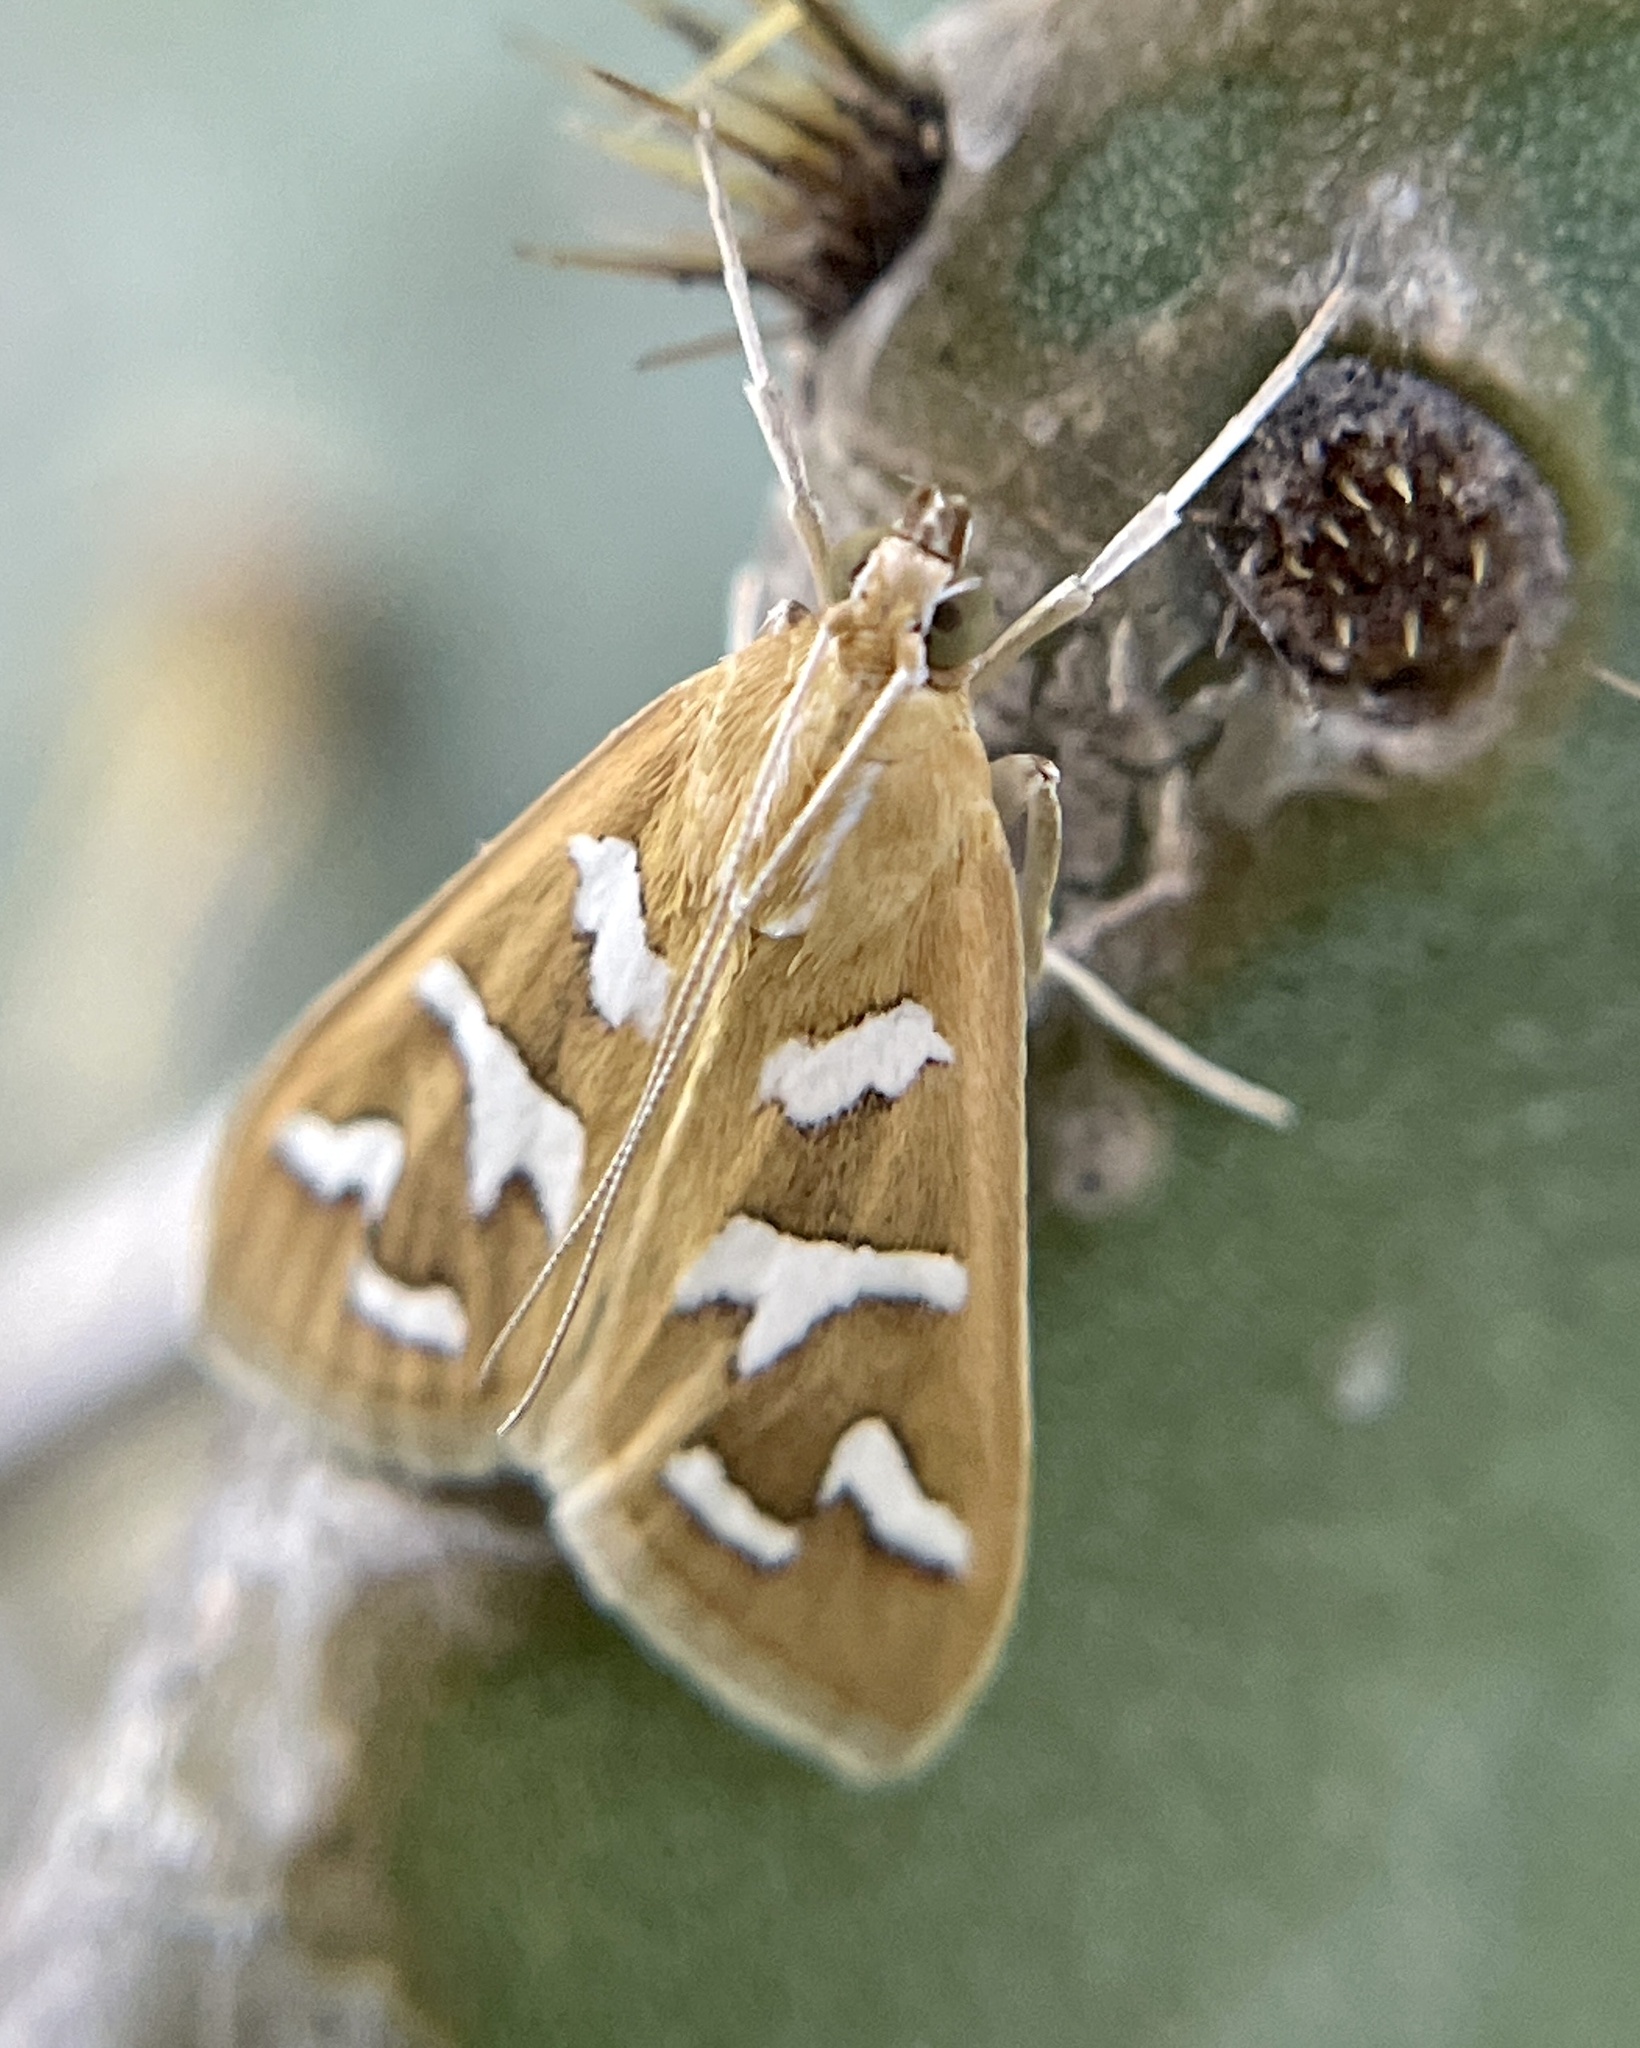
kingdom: Animalia
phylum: Arthropoda
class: Insecta
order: Lepidoptera
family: Crambidae
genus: Diastictis
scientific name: Diastictis fracturalis
